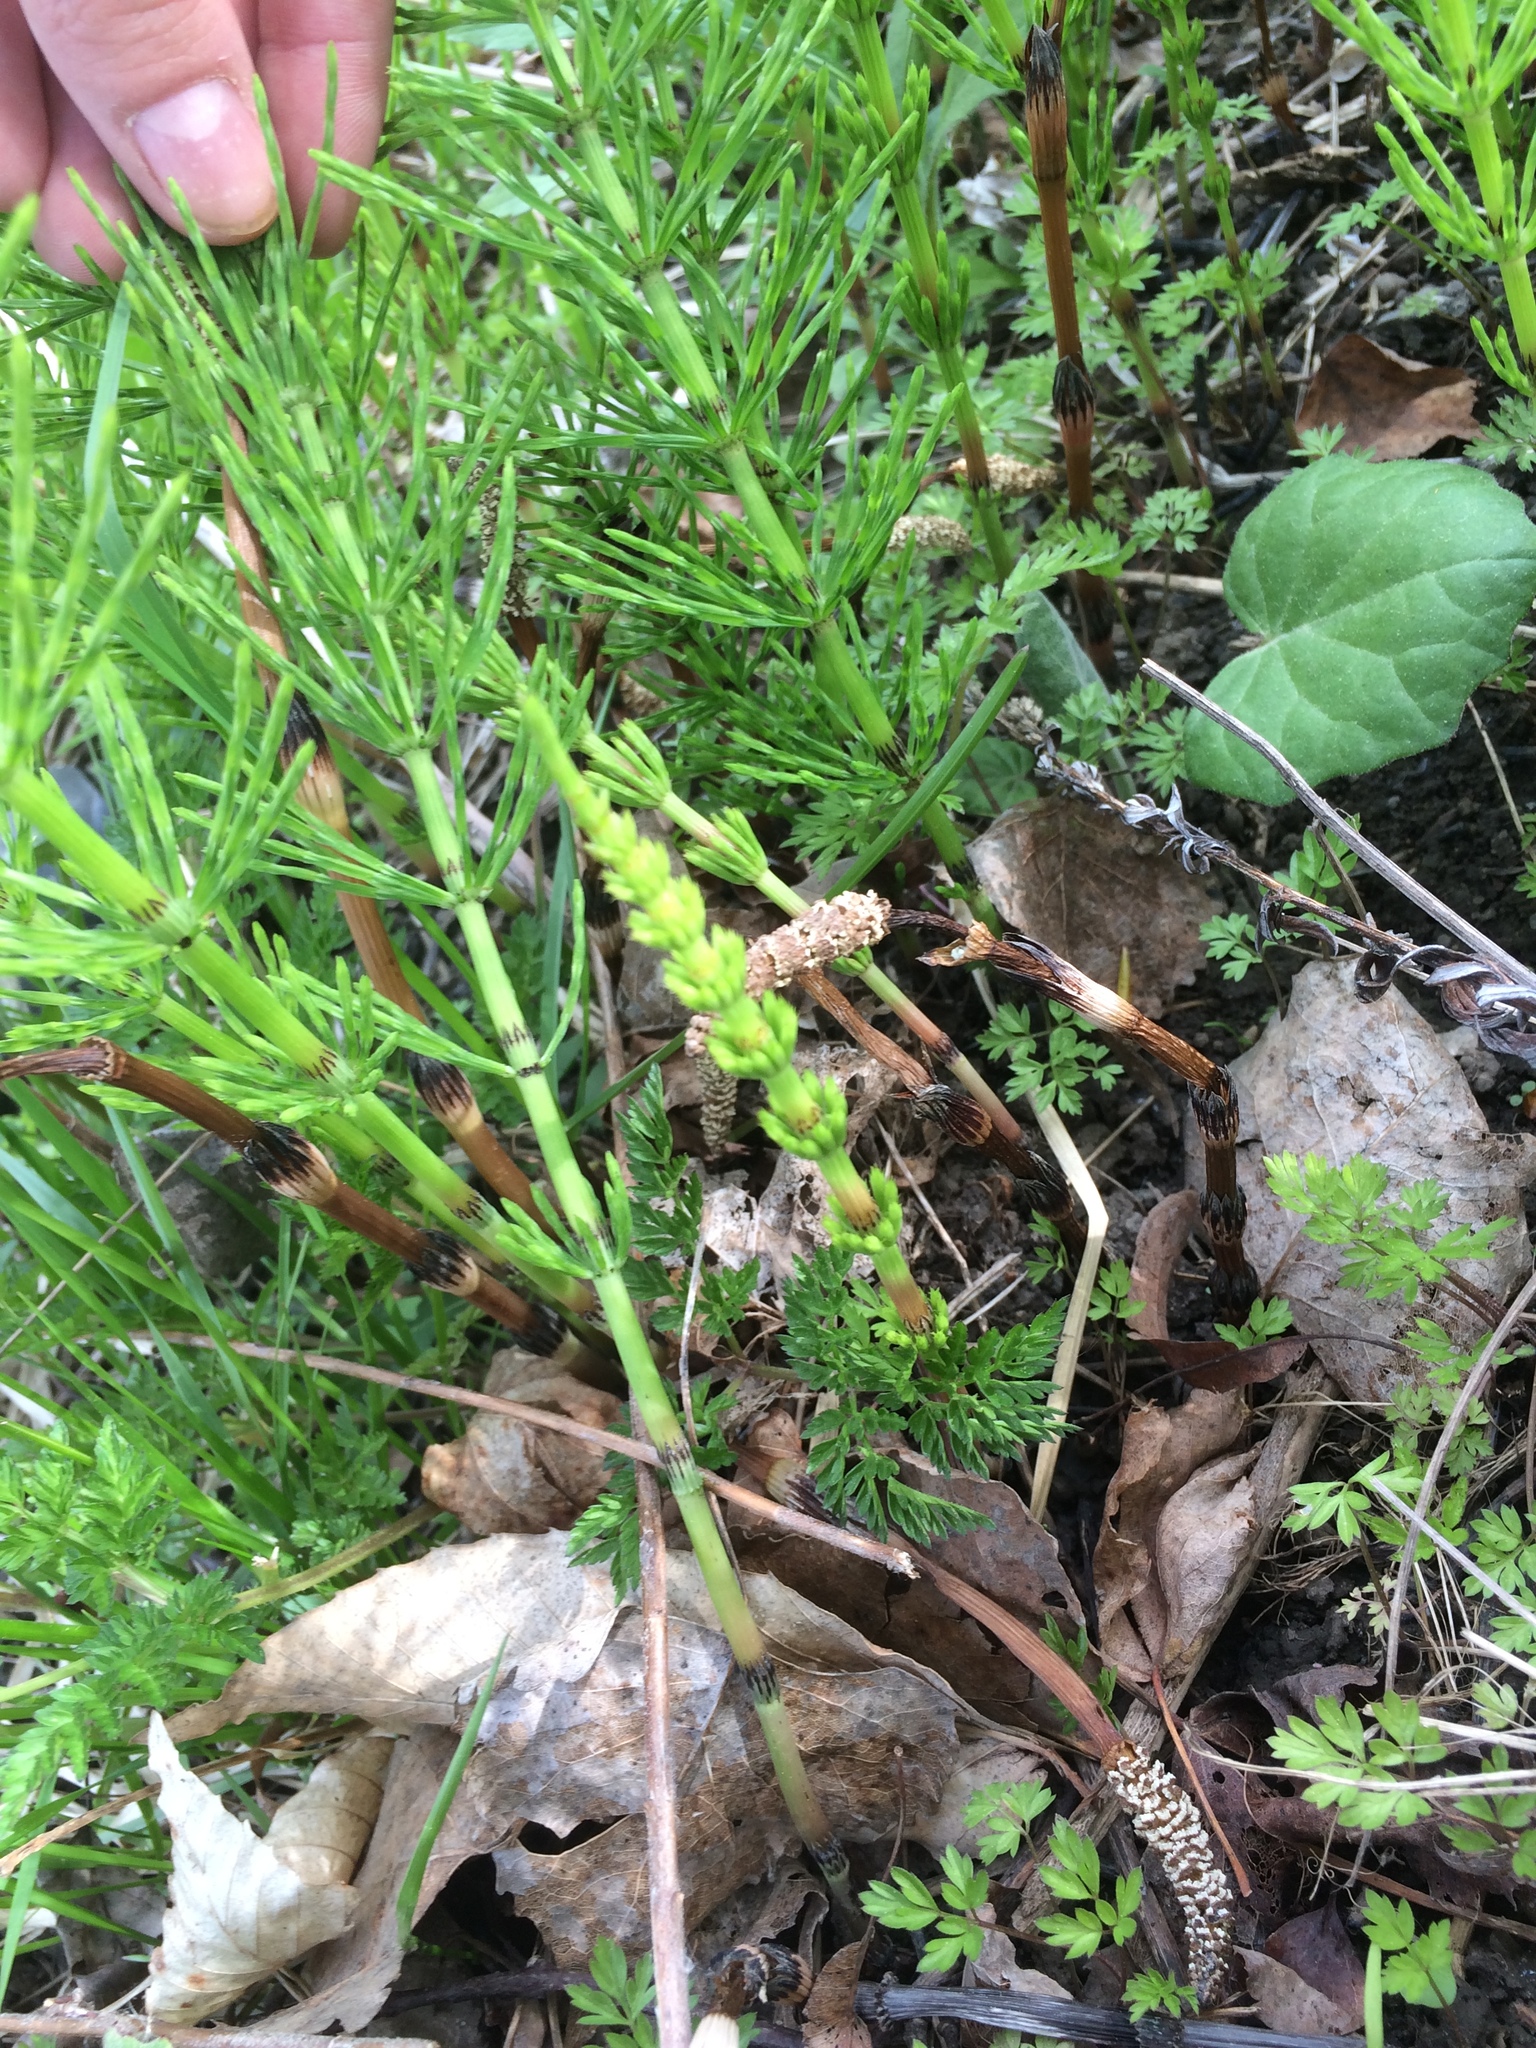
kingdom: Plantae
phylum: Tracheophyta
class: Polypodiopsida
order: Equisetales
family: Equisetaceae
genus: Equisetum
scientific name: Equisetum arvense
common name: Field horsetail
